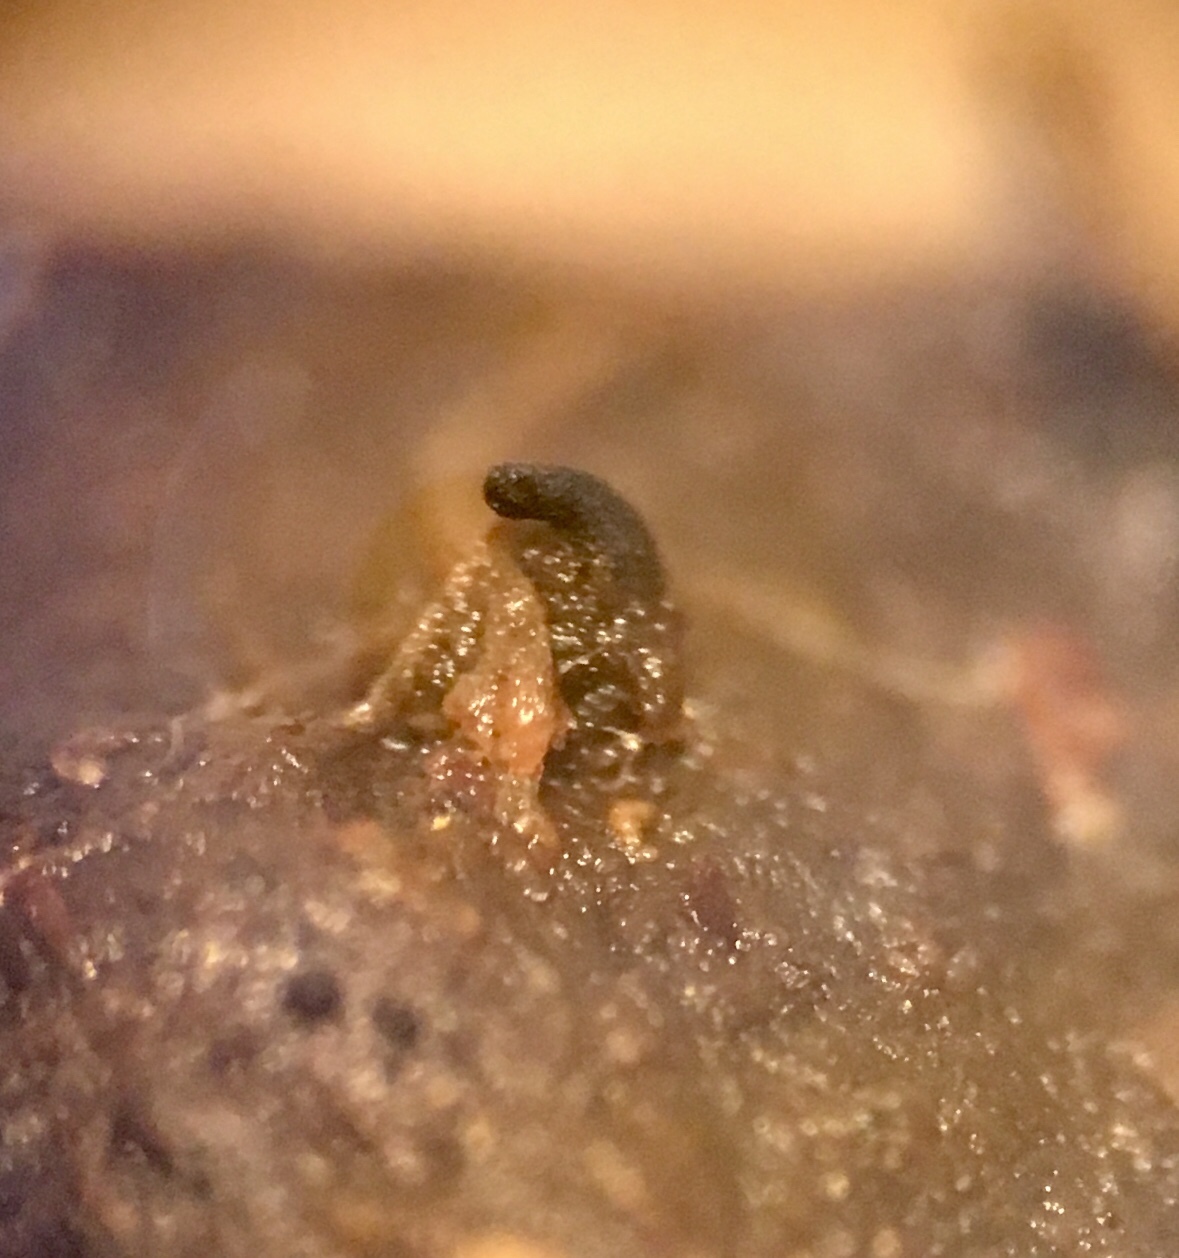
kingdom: Fungi
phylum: Ascomycota
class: Sordariomycetes
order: Sordariales
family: Naviculisporaceae
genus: Rhypophila
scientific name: Rhypophila pleiospora
